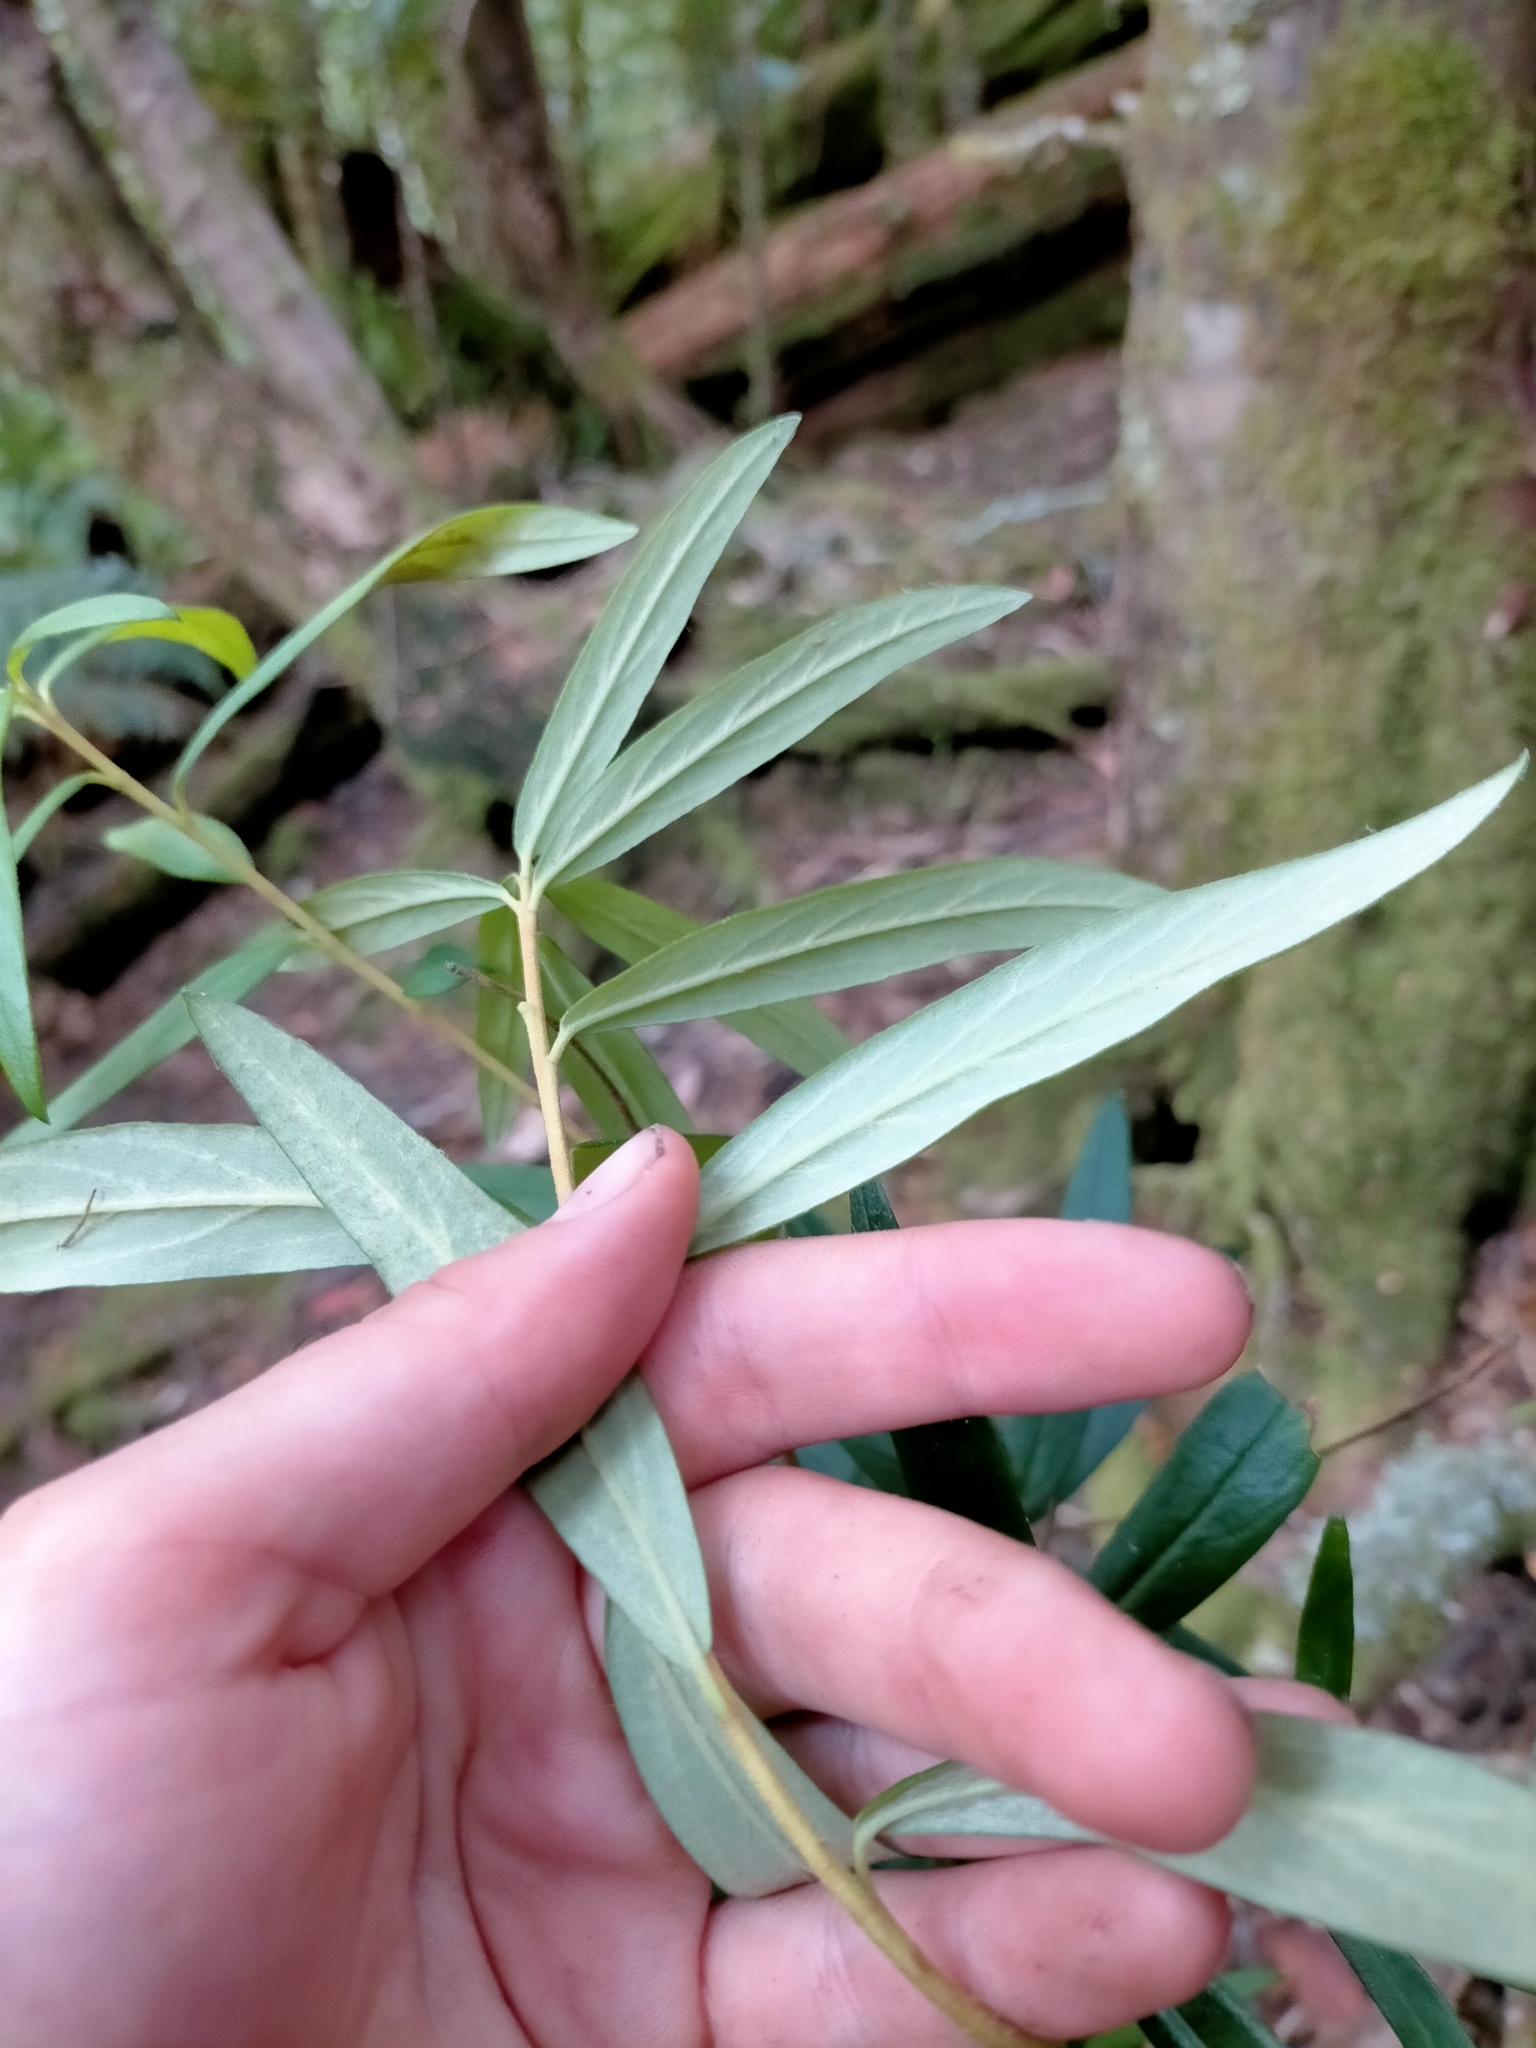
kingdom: Plantae
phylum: Tracheophyta
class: Magnoliopsida
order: Apiales
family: Pittosporaceae
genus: Pittosporum
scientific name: Pittosporum bicolor
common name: Tallowwood
